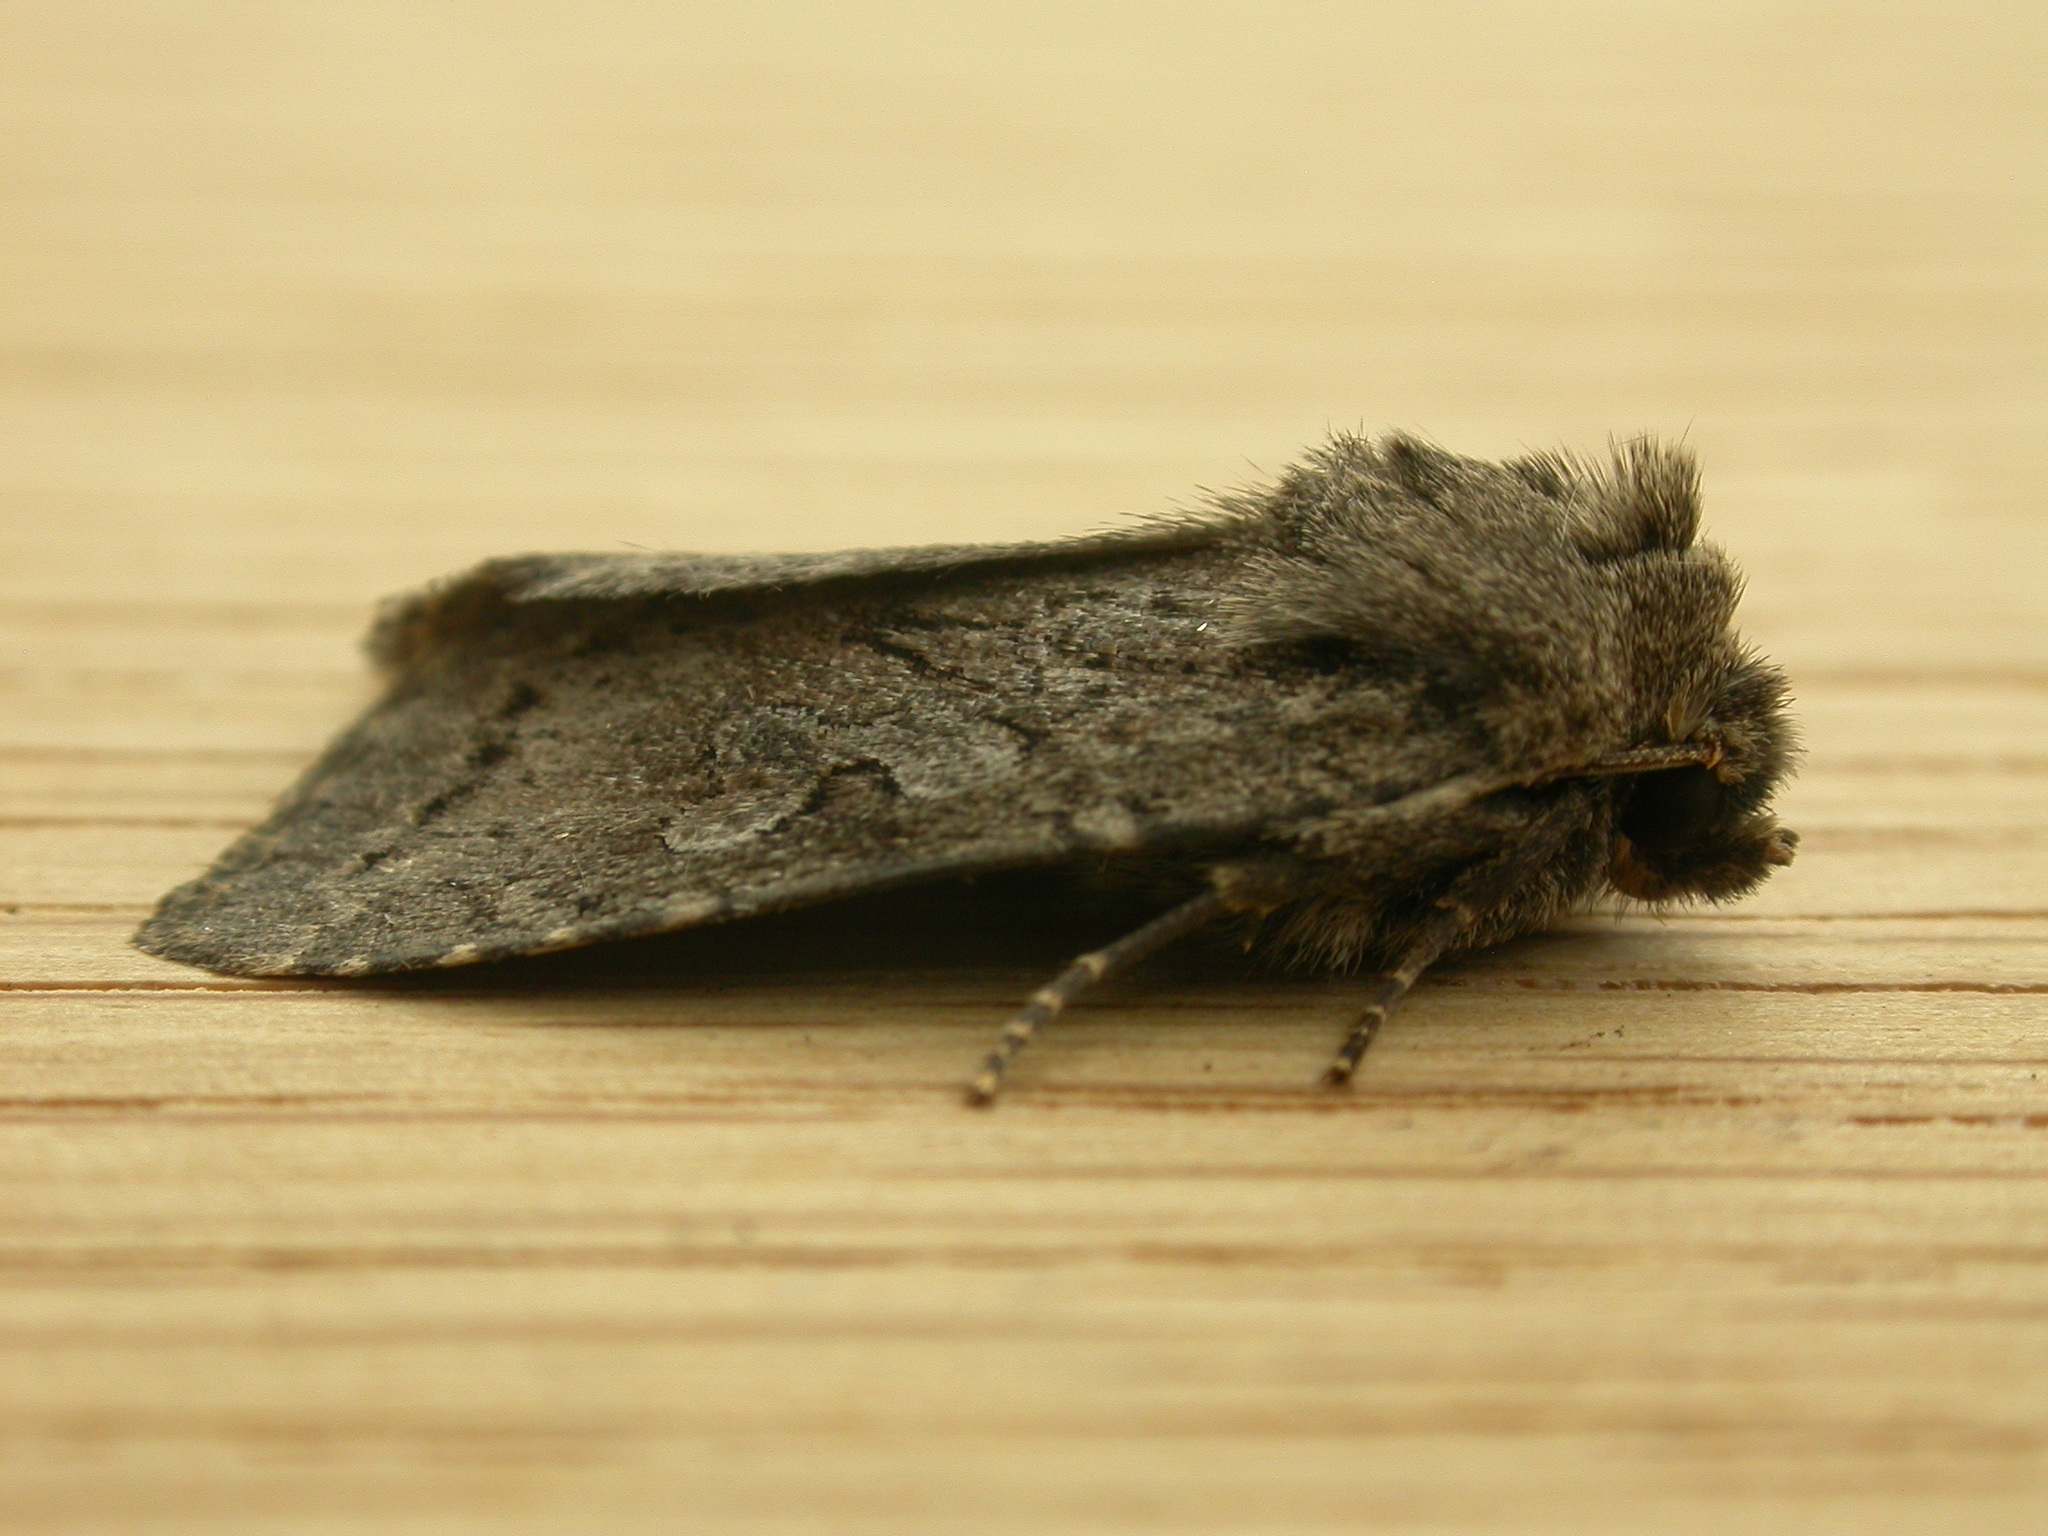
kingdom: Animalia
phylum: Arthropoda
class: Insecta
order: Lepidoptera
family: Noctuidae
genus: Apterogenum
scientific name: Apterogenum ypsillon
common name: Dingy shears
